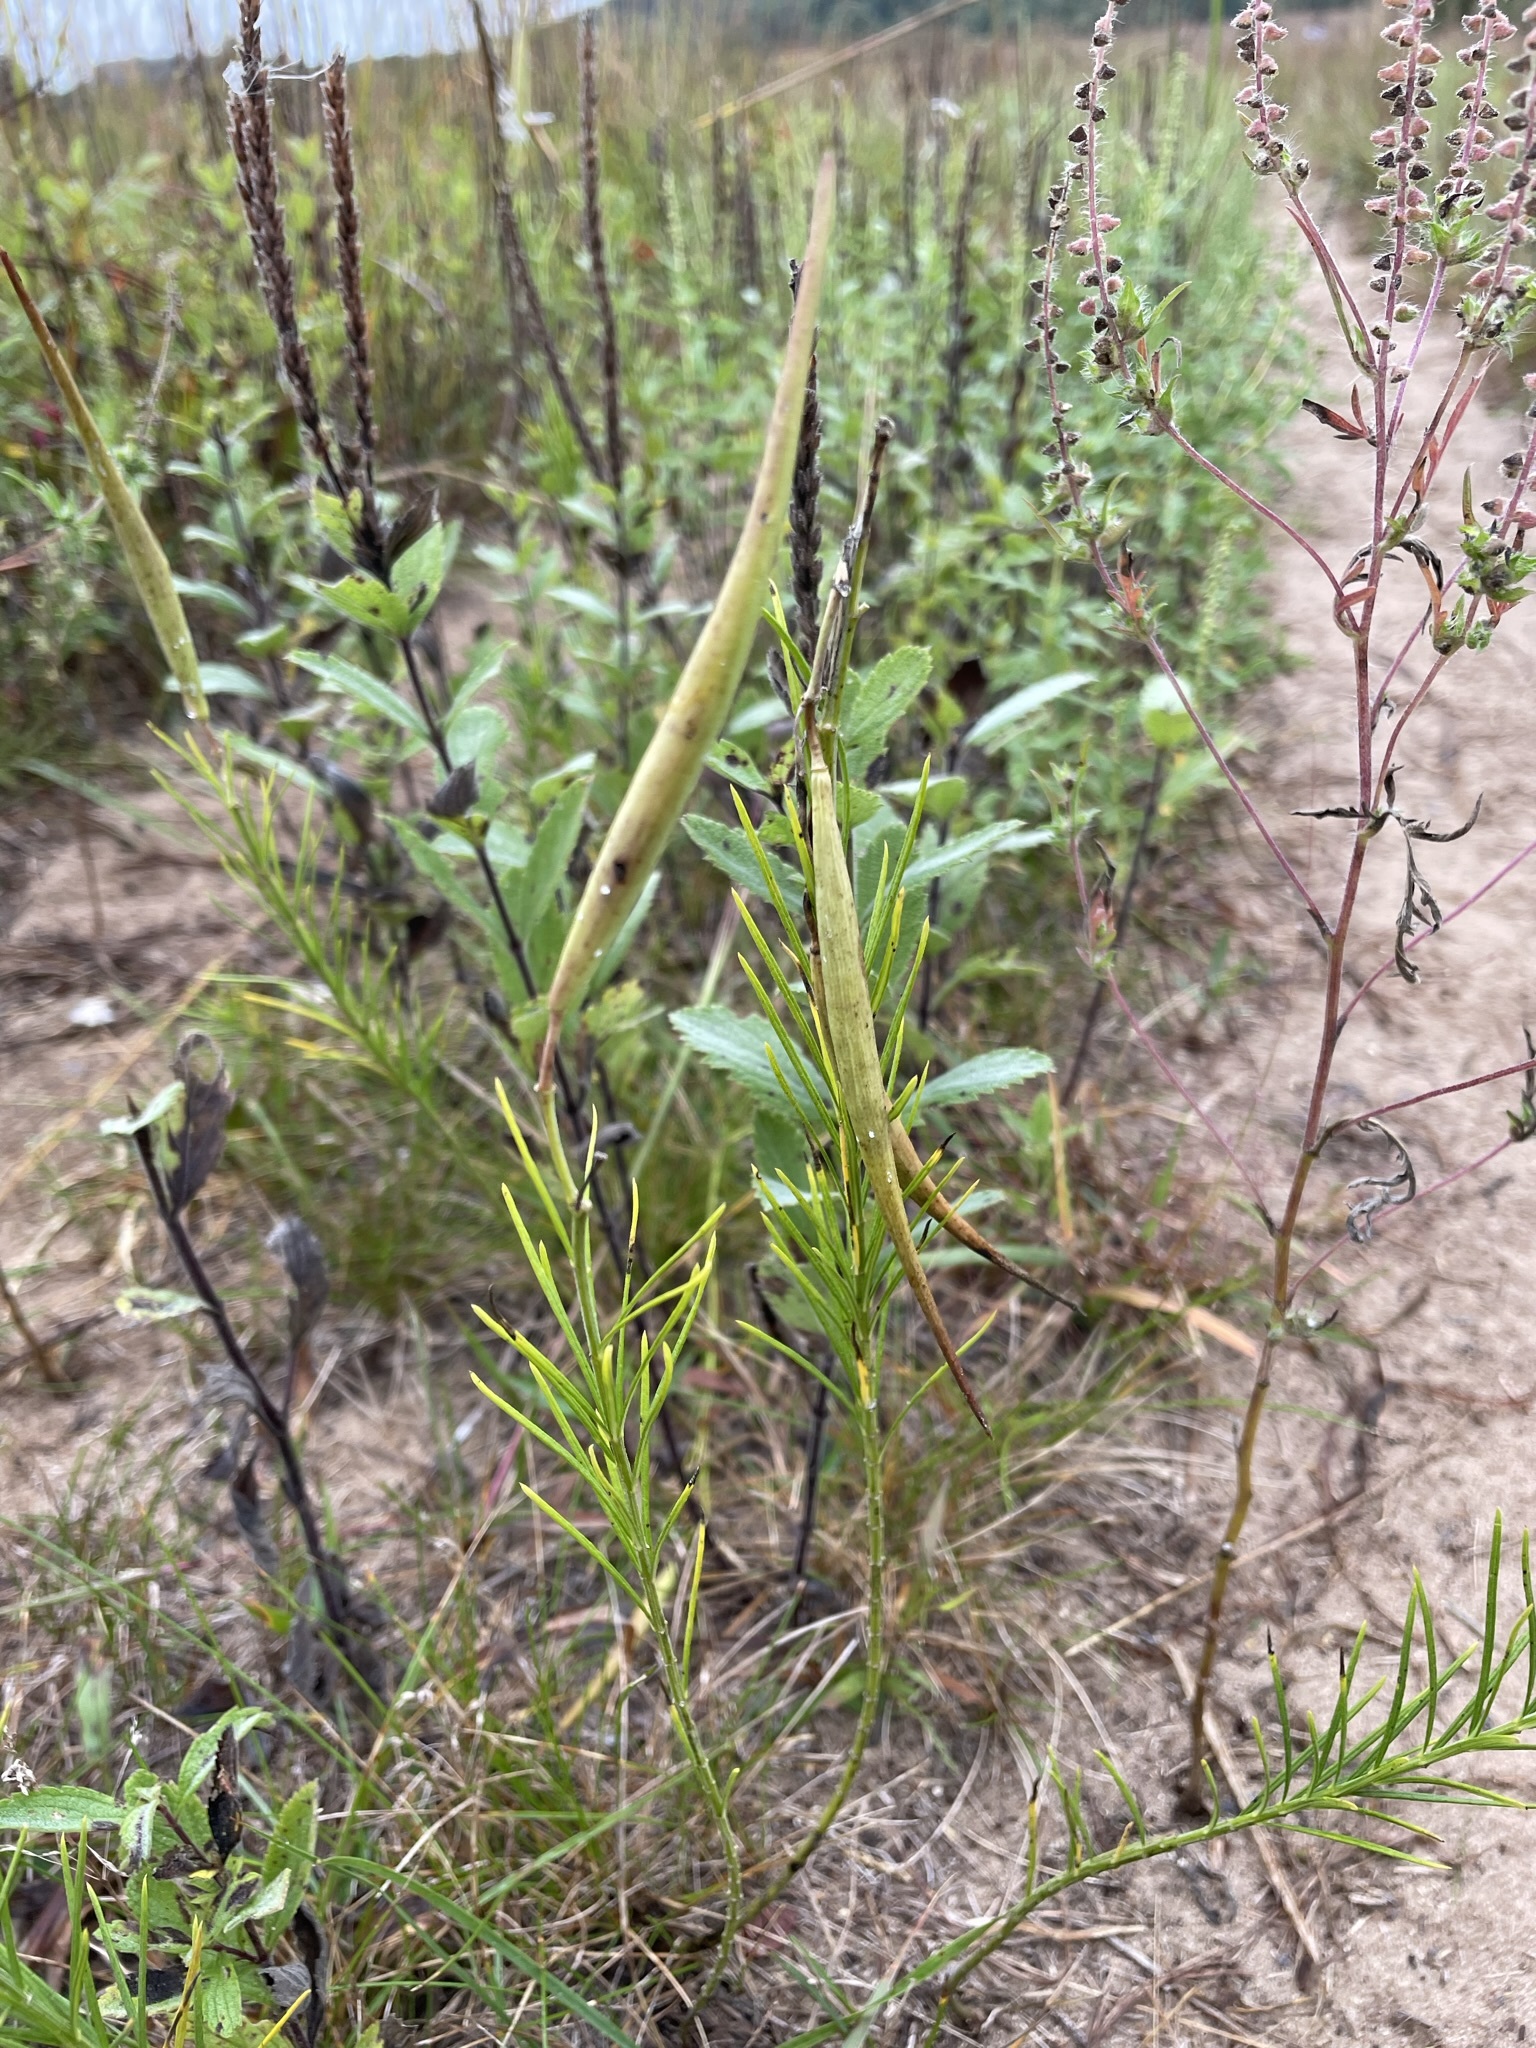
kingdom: Plantae
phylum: Tracheophyta
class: Magnoliopsida
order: Gentianales
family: Apocynaceae
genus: Asclepias
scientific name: Asclepias verticillata
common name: Eastern whorled milkweed
